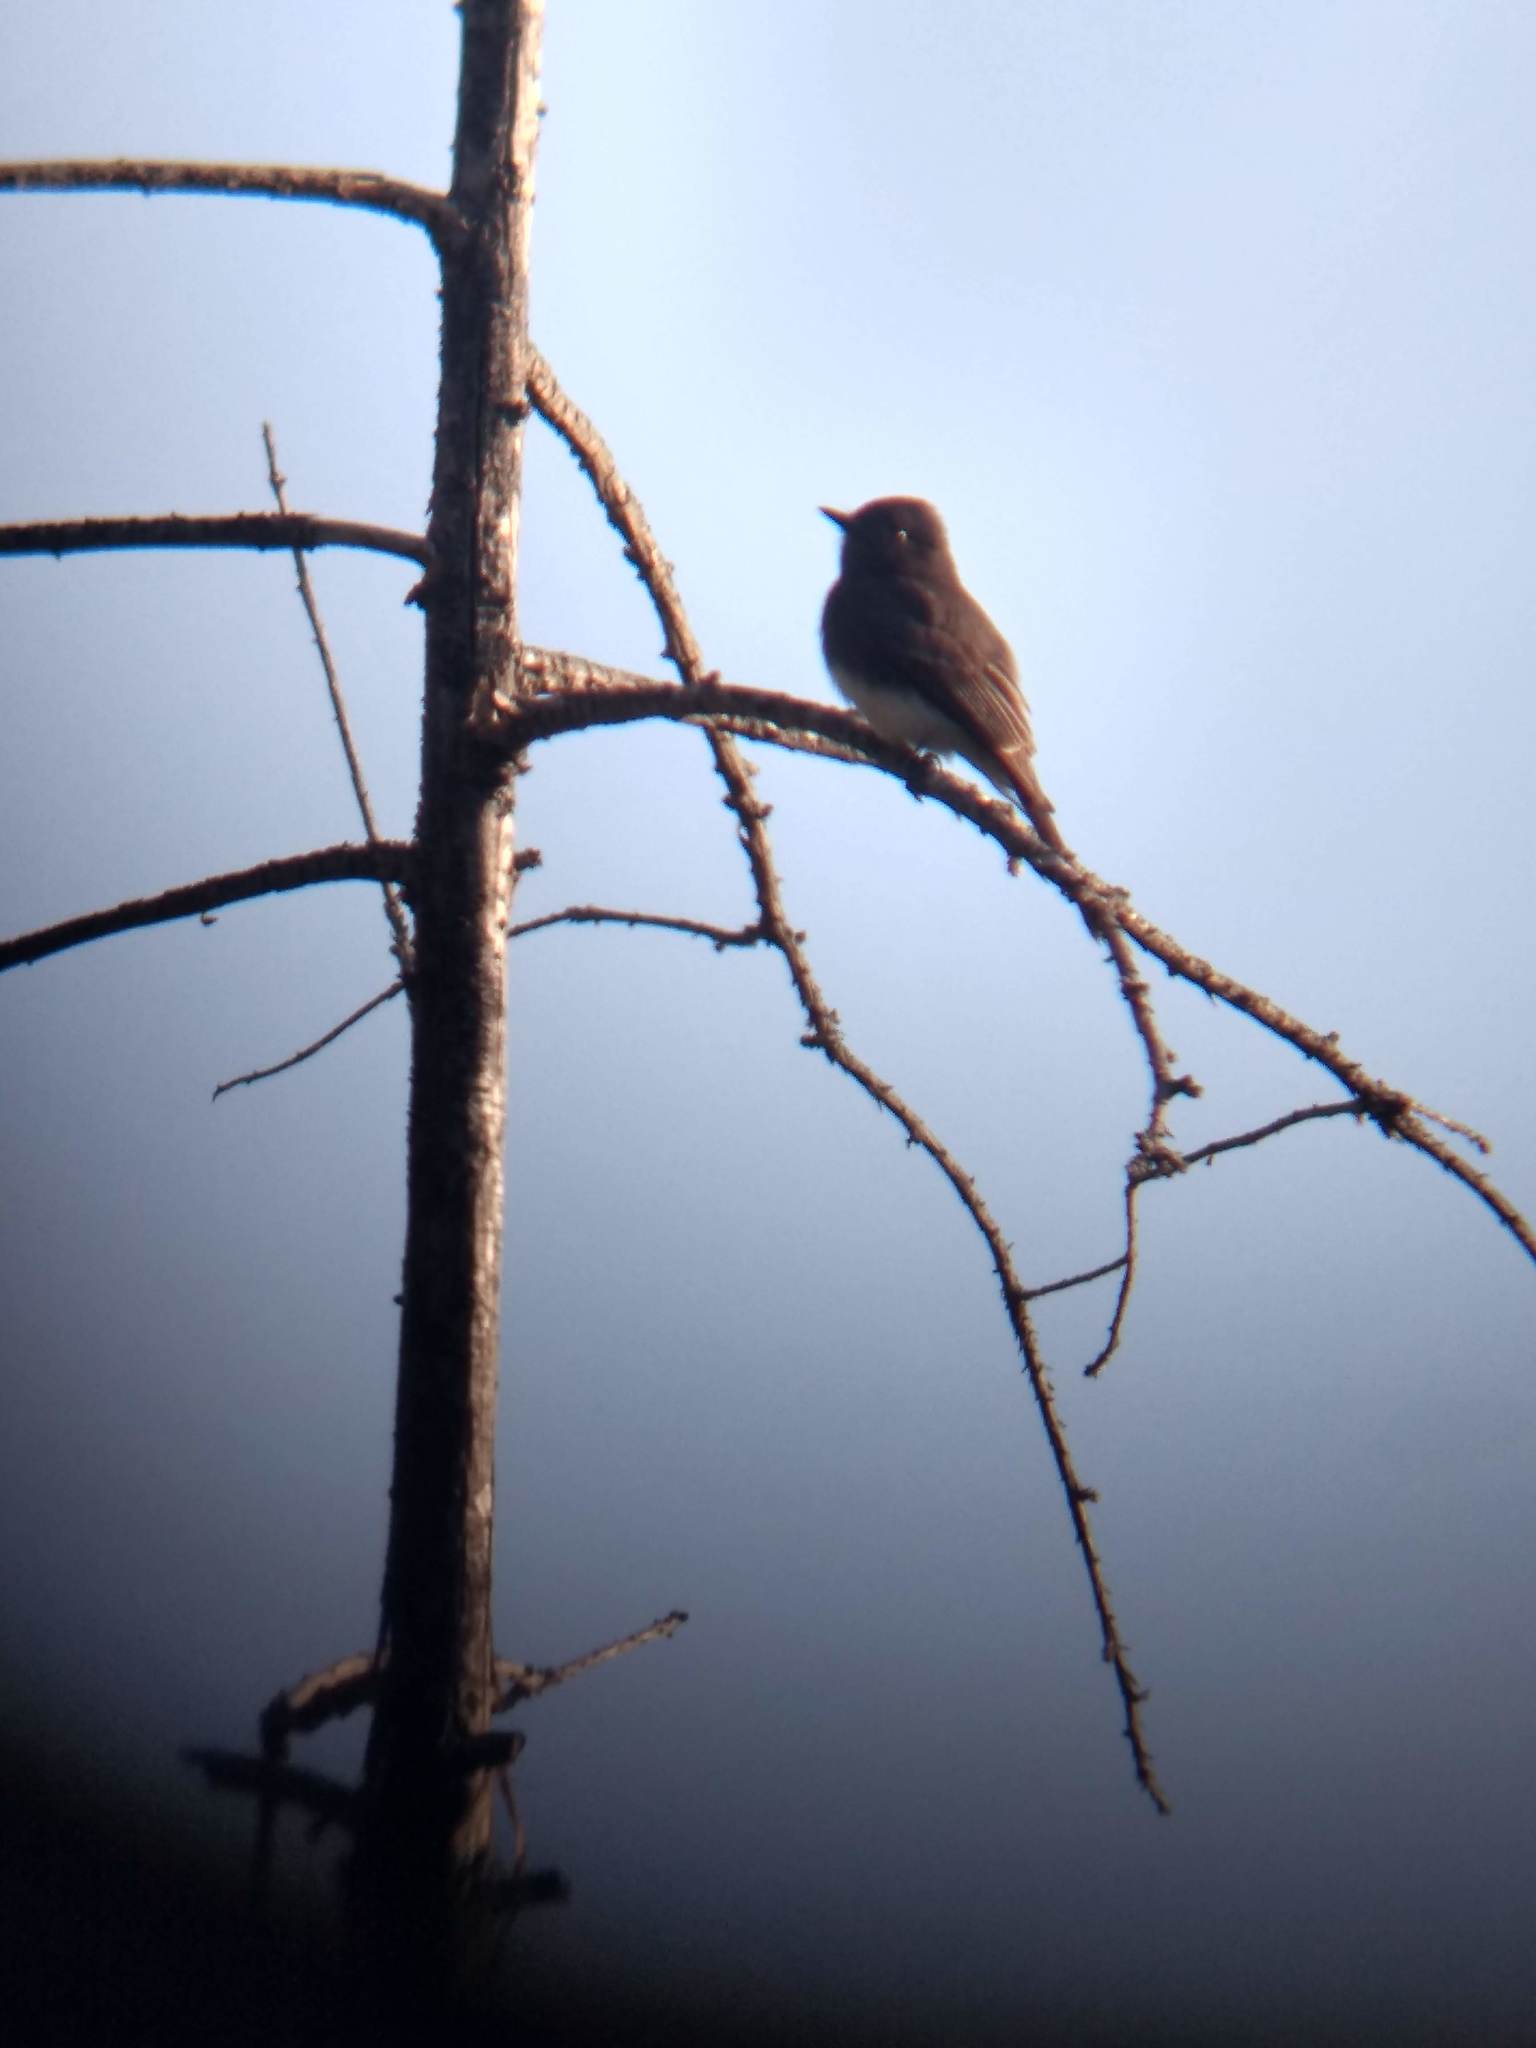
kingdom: Animalia
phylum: Chordata
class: Aves
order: Passeriformes
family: Tyrannidae
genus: Sayornis
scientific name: Sayornis nigricans
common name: Black phoebe
